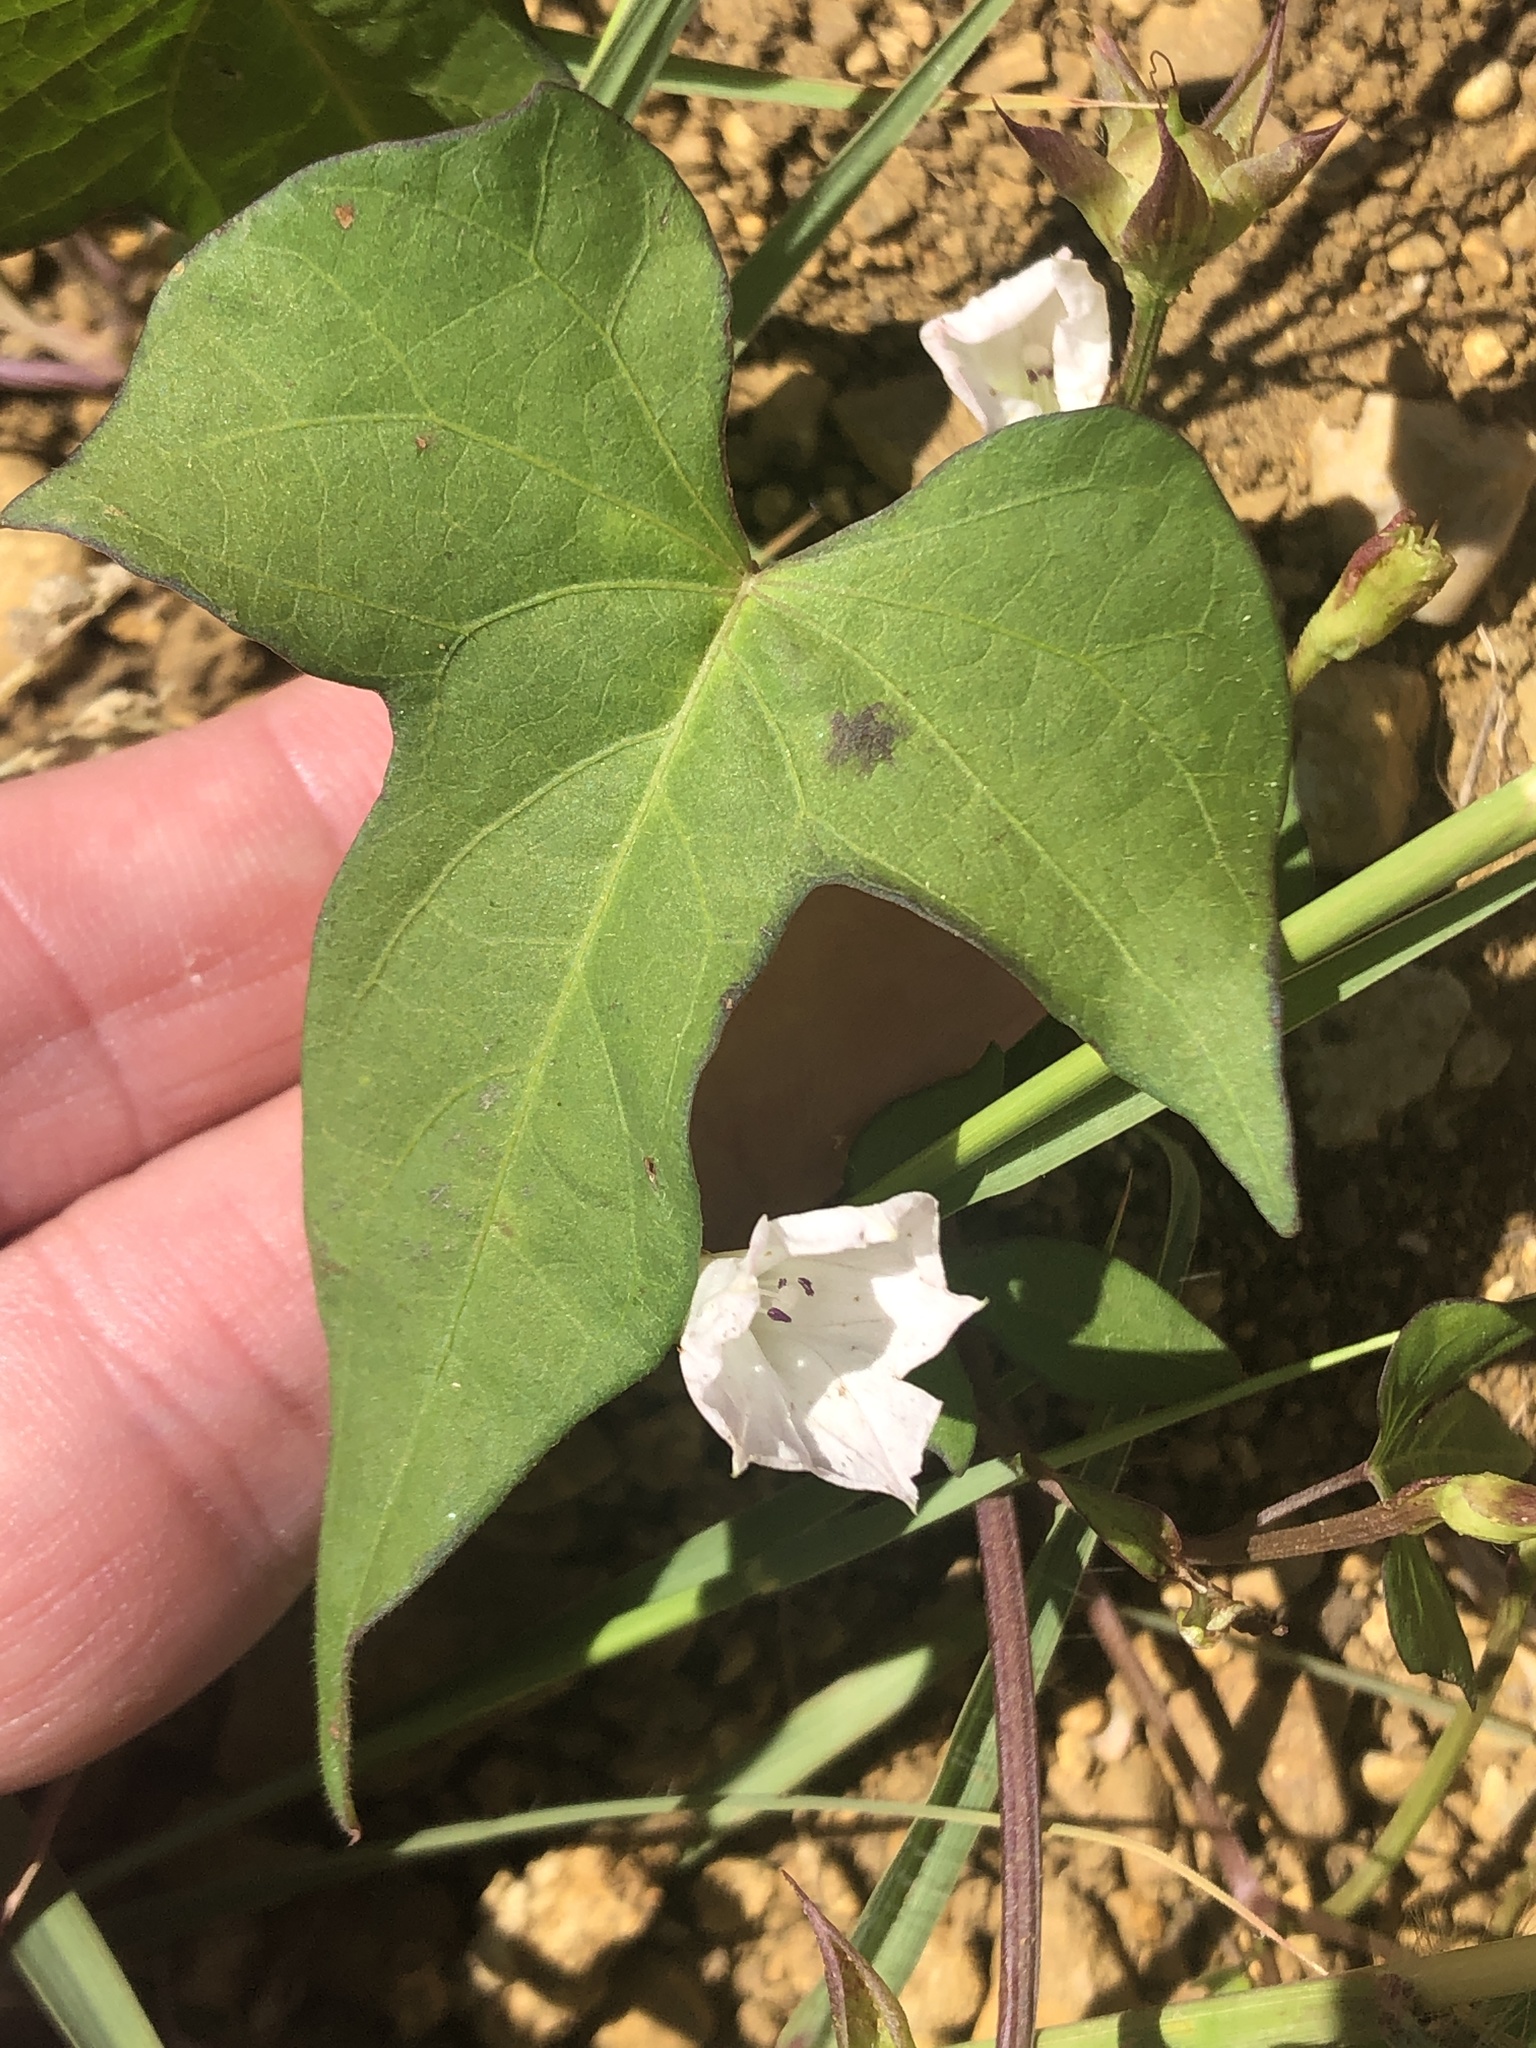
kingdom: Plantae
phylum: Tracheophyta
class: Magnoliopsida
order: Solanales
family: Convolvulaceae
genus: Ipomoea
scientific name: Ipomoea lacunosa
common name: White morning-glory
